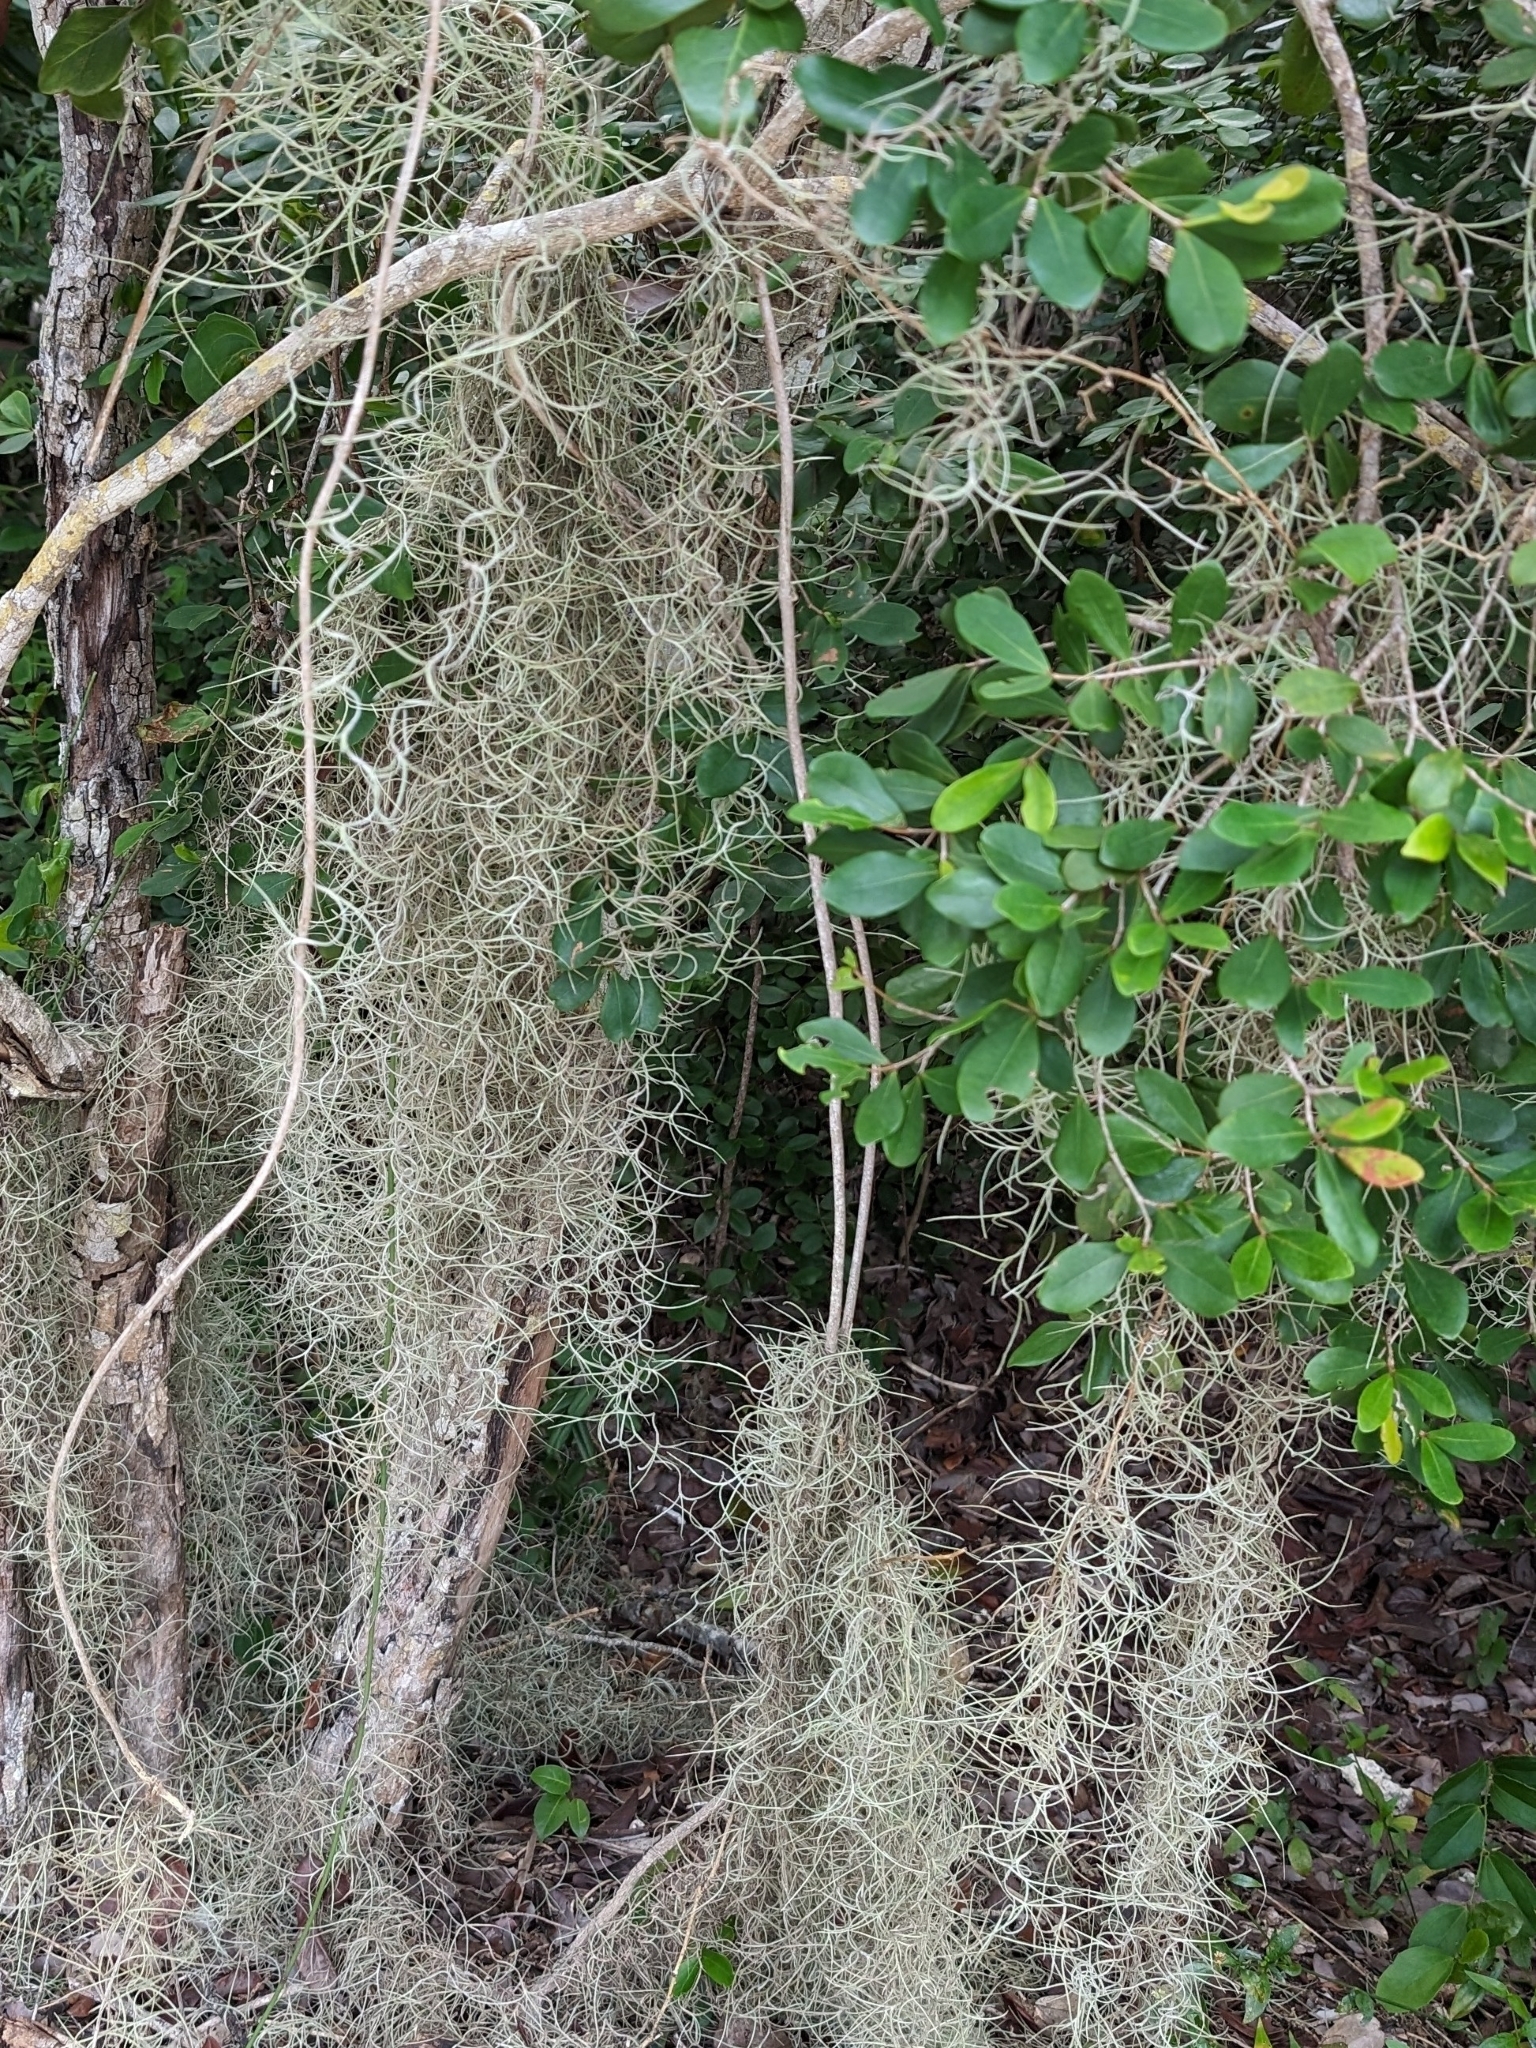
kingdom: Plantae
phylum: Tracheophyta
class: Liliopsida
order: Poales
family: Bromeliaceae
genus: Tillandsia
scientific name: Tillandsia usneoides
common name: Spanish moss
